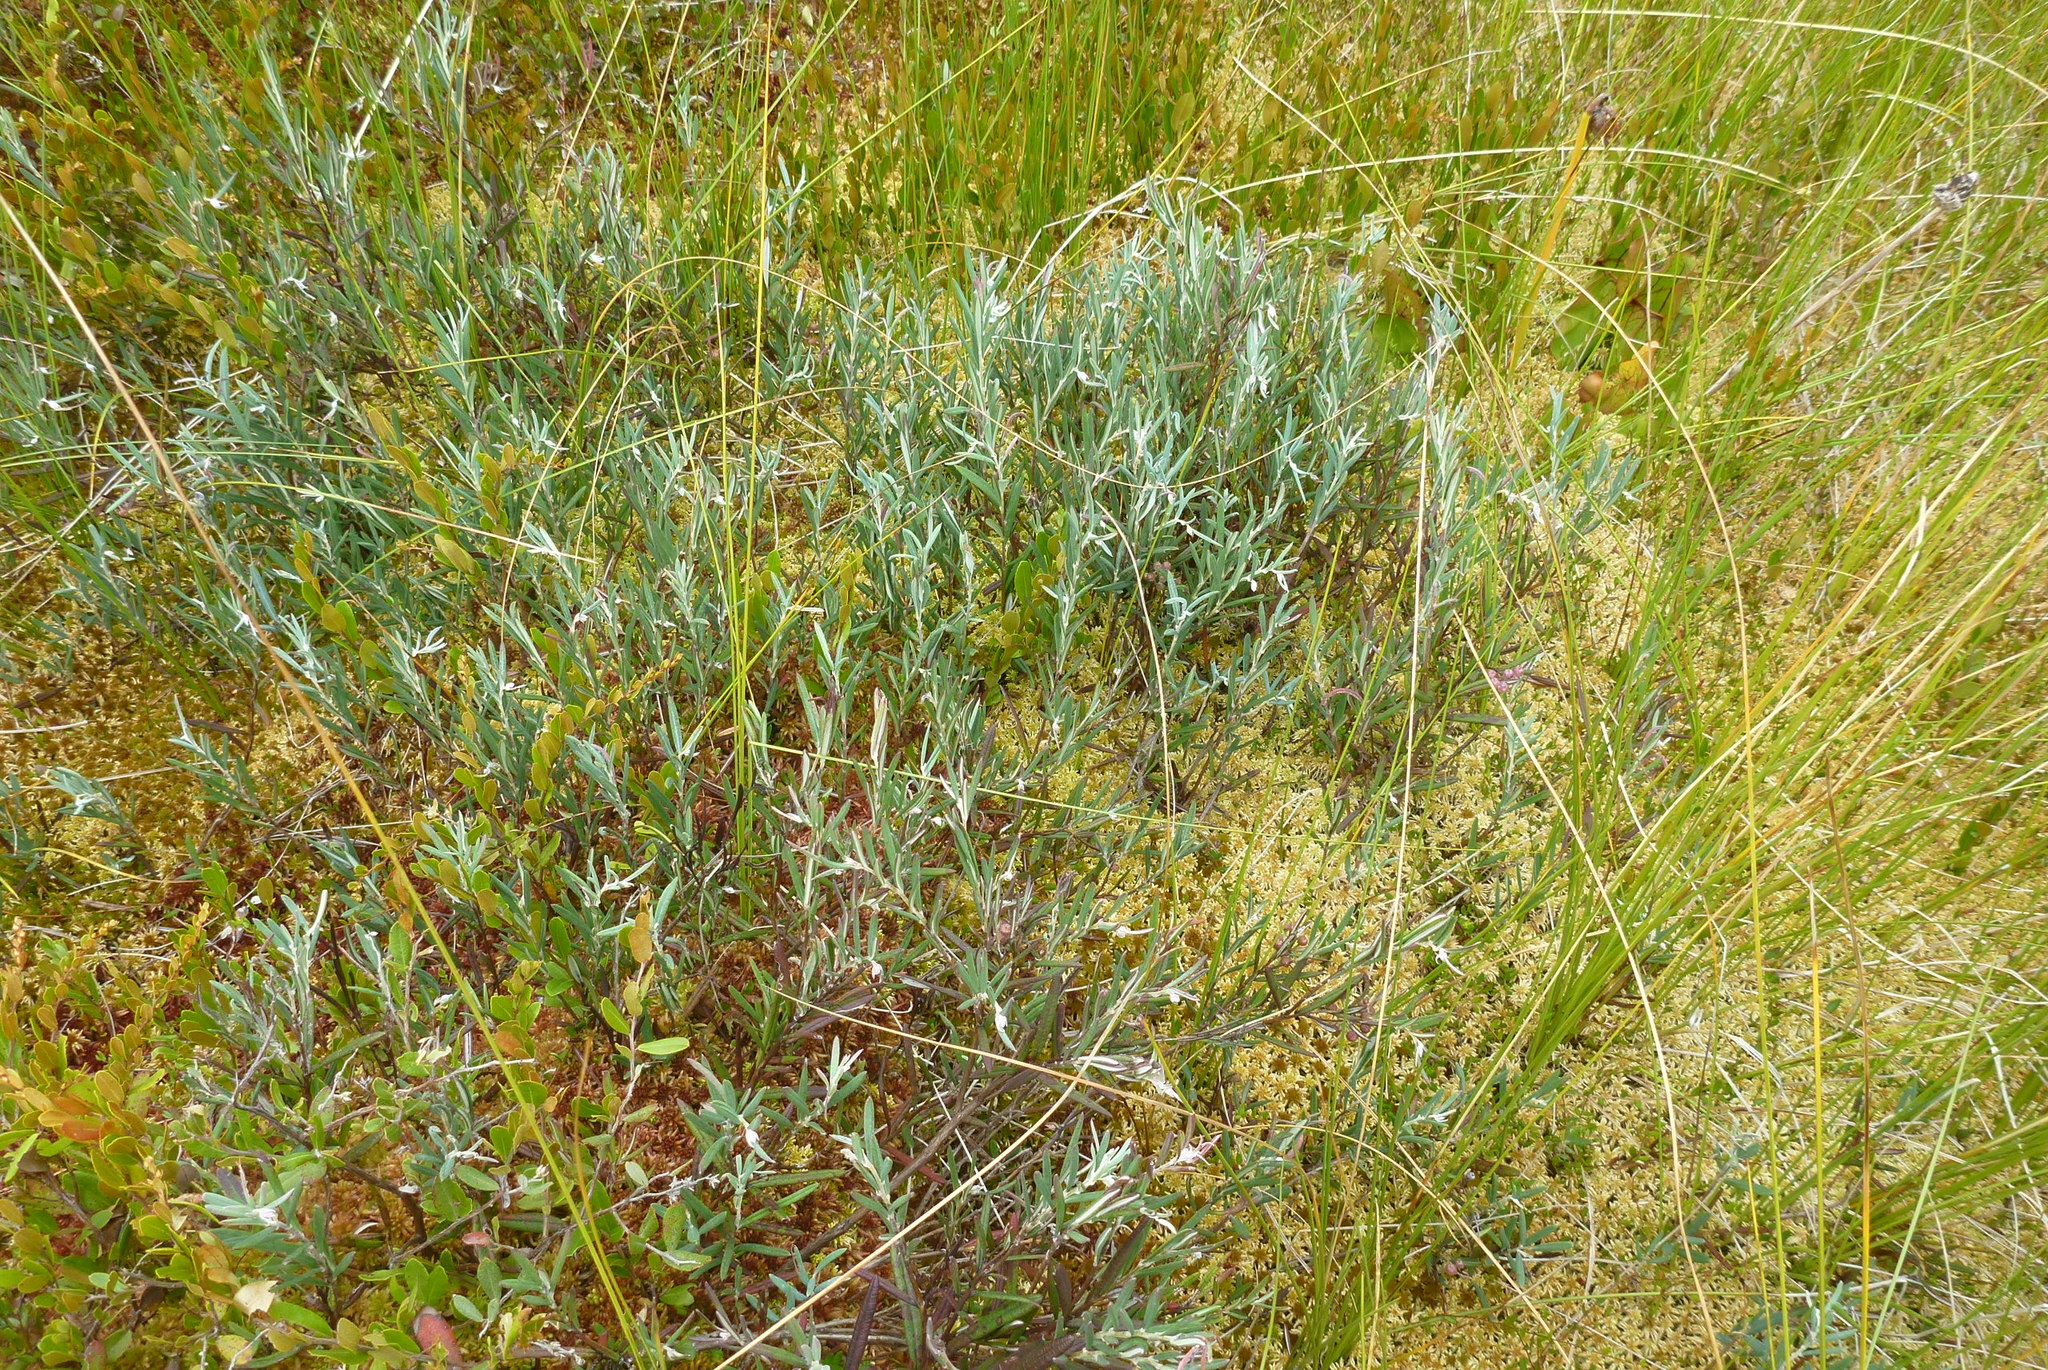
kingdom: Plantae
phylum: Tracheophyta
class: Magnoliopsida
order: Ericales
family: Ericaceae
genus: Andromeda
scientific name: Andromeda polifolia
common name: Bog-rosemary
